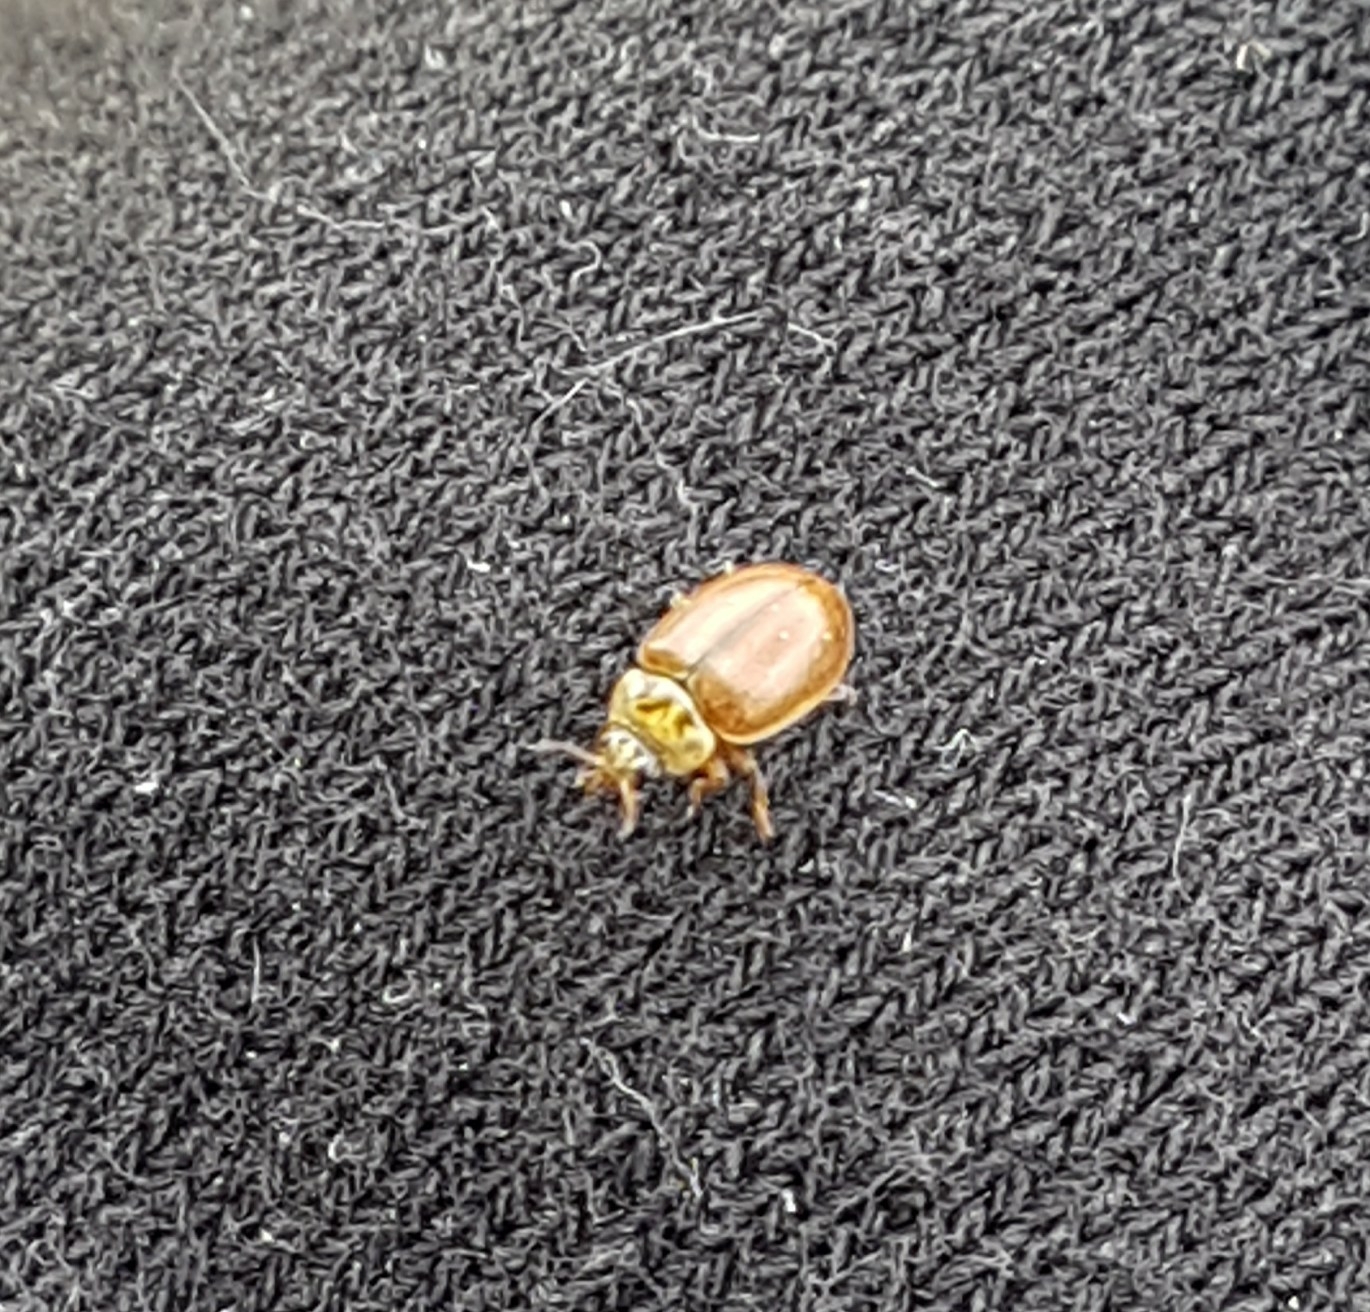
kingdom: Animalia
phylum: Arthropoda
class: Insecta
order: Coleoptera
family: Coccinellidae
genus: Aphidecta
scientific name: Aphidecta obliterata
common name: Larch ladybird
